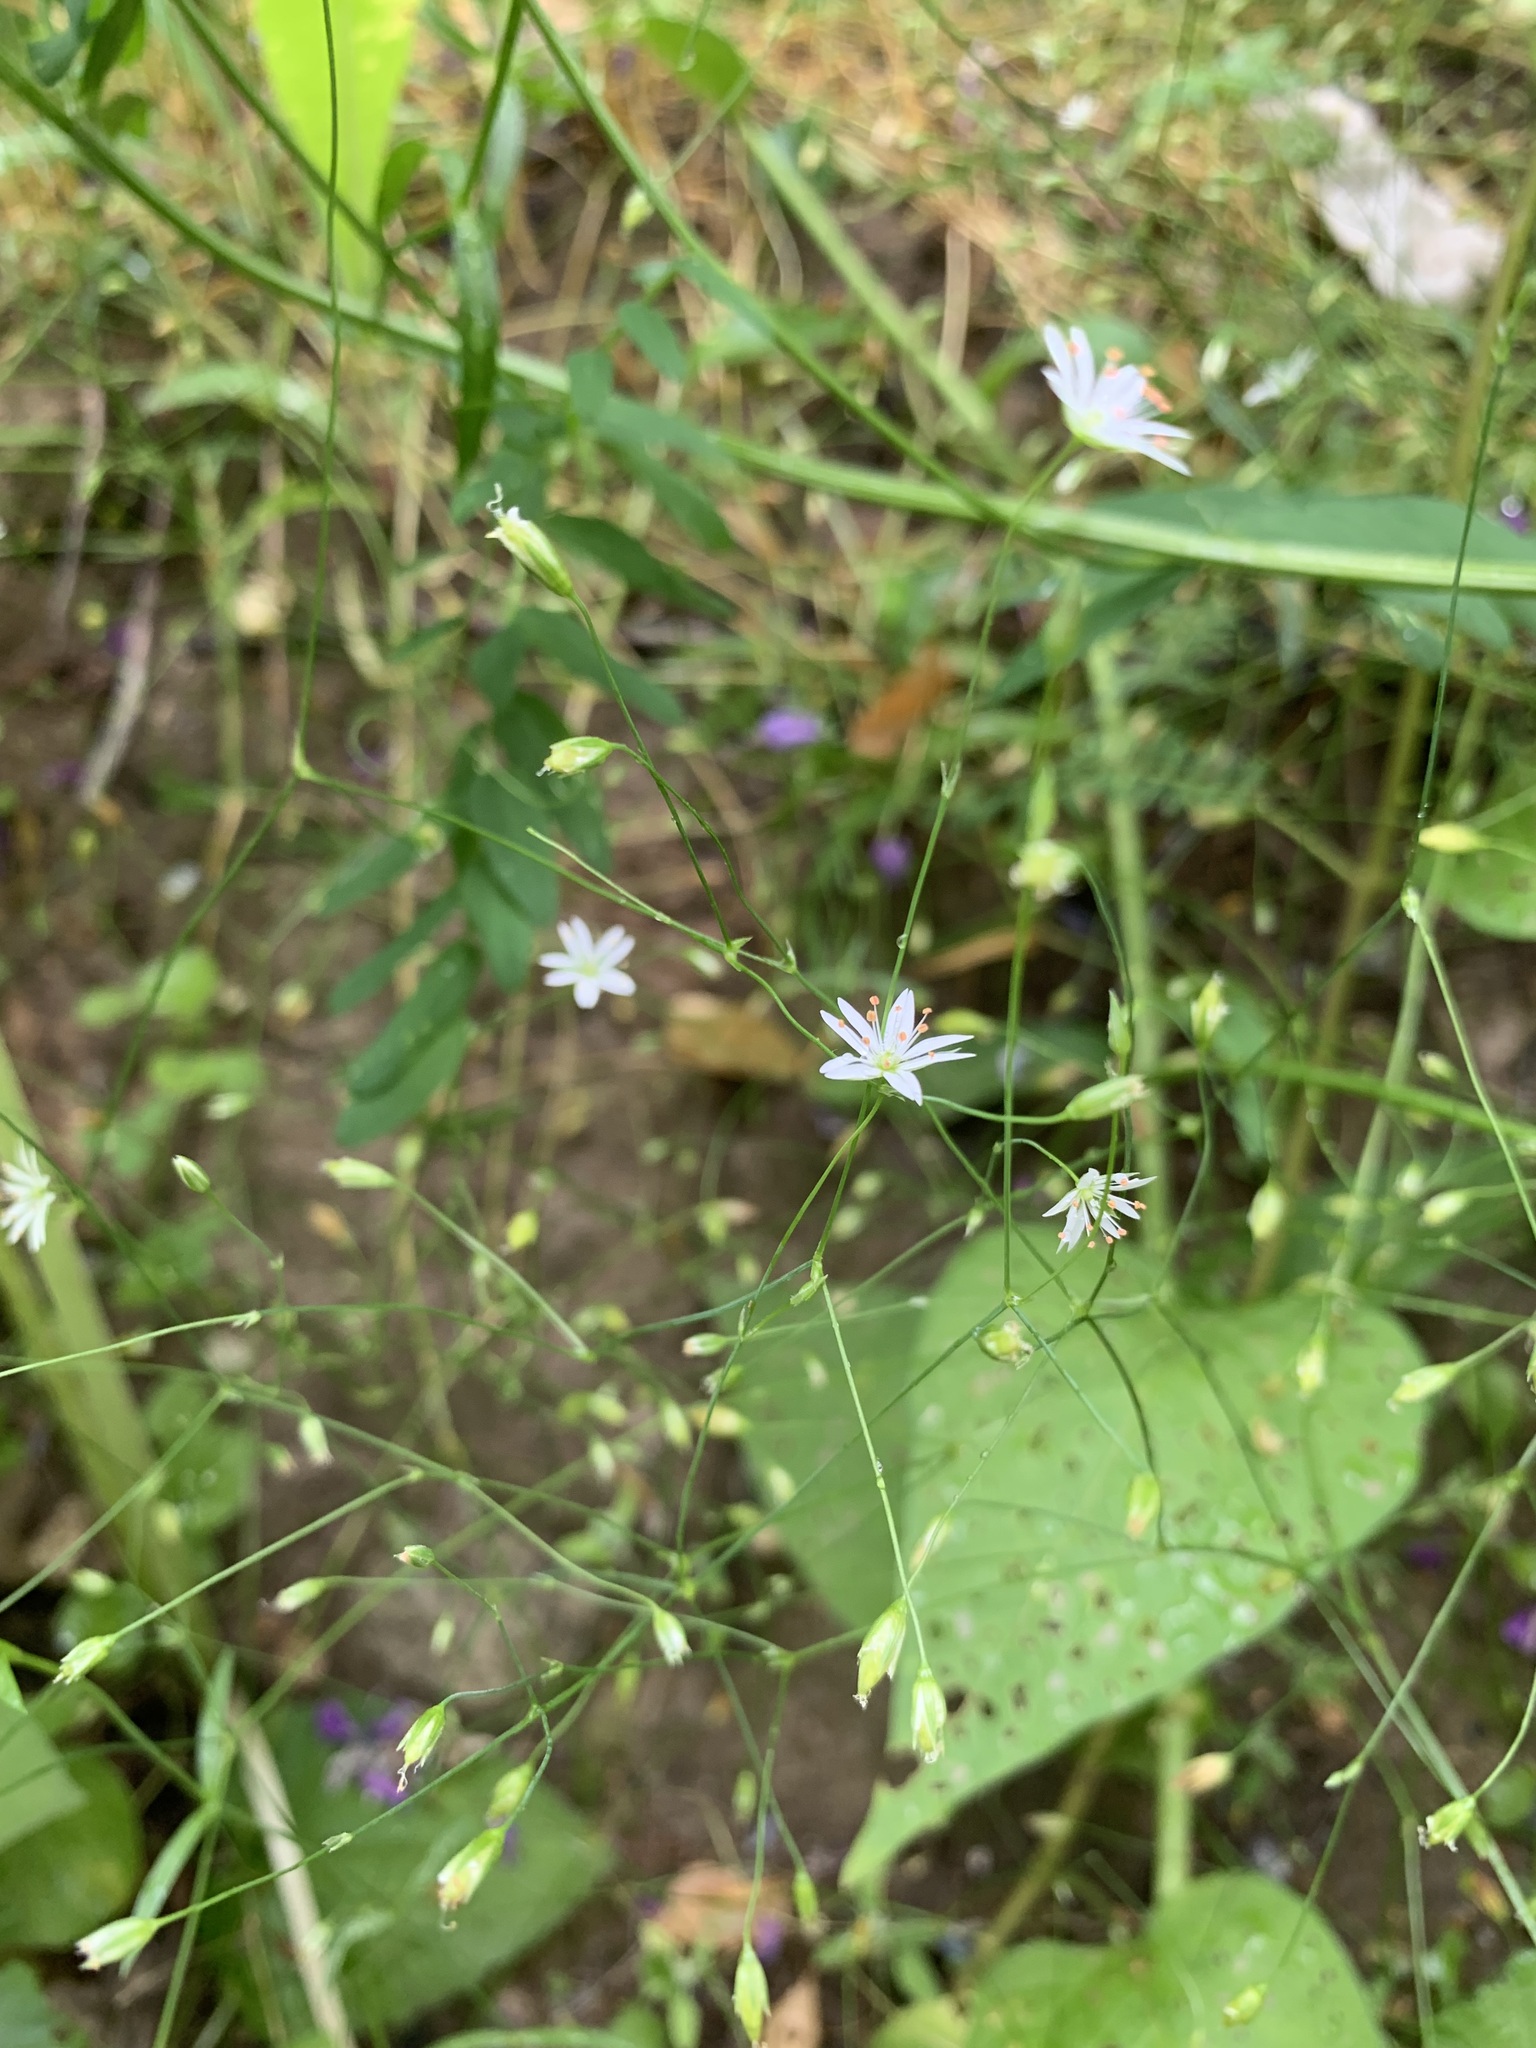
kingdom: Plantae
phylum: Tracheophyta
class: Magnoliopsida
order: Caryophyllales
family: Caryophyllaceae
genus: Stellaria
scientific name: Stellaria graminea
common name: Grass-like starwort
